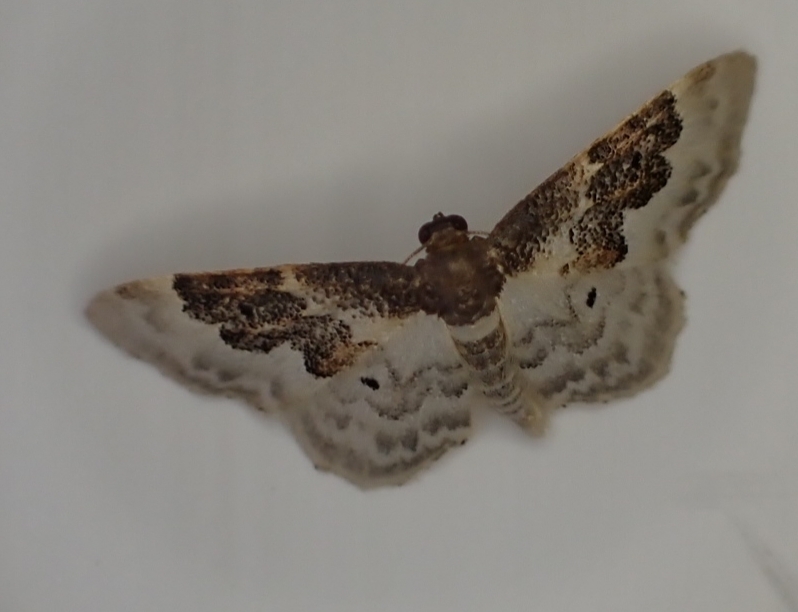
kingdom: Animalia
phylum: Arthropoda
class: Insecta
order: Lepidoptera
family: Geometridae
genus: Idaea
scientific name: Idaea rusticata
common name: Least carpet
